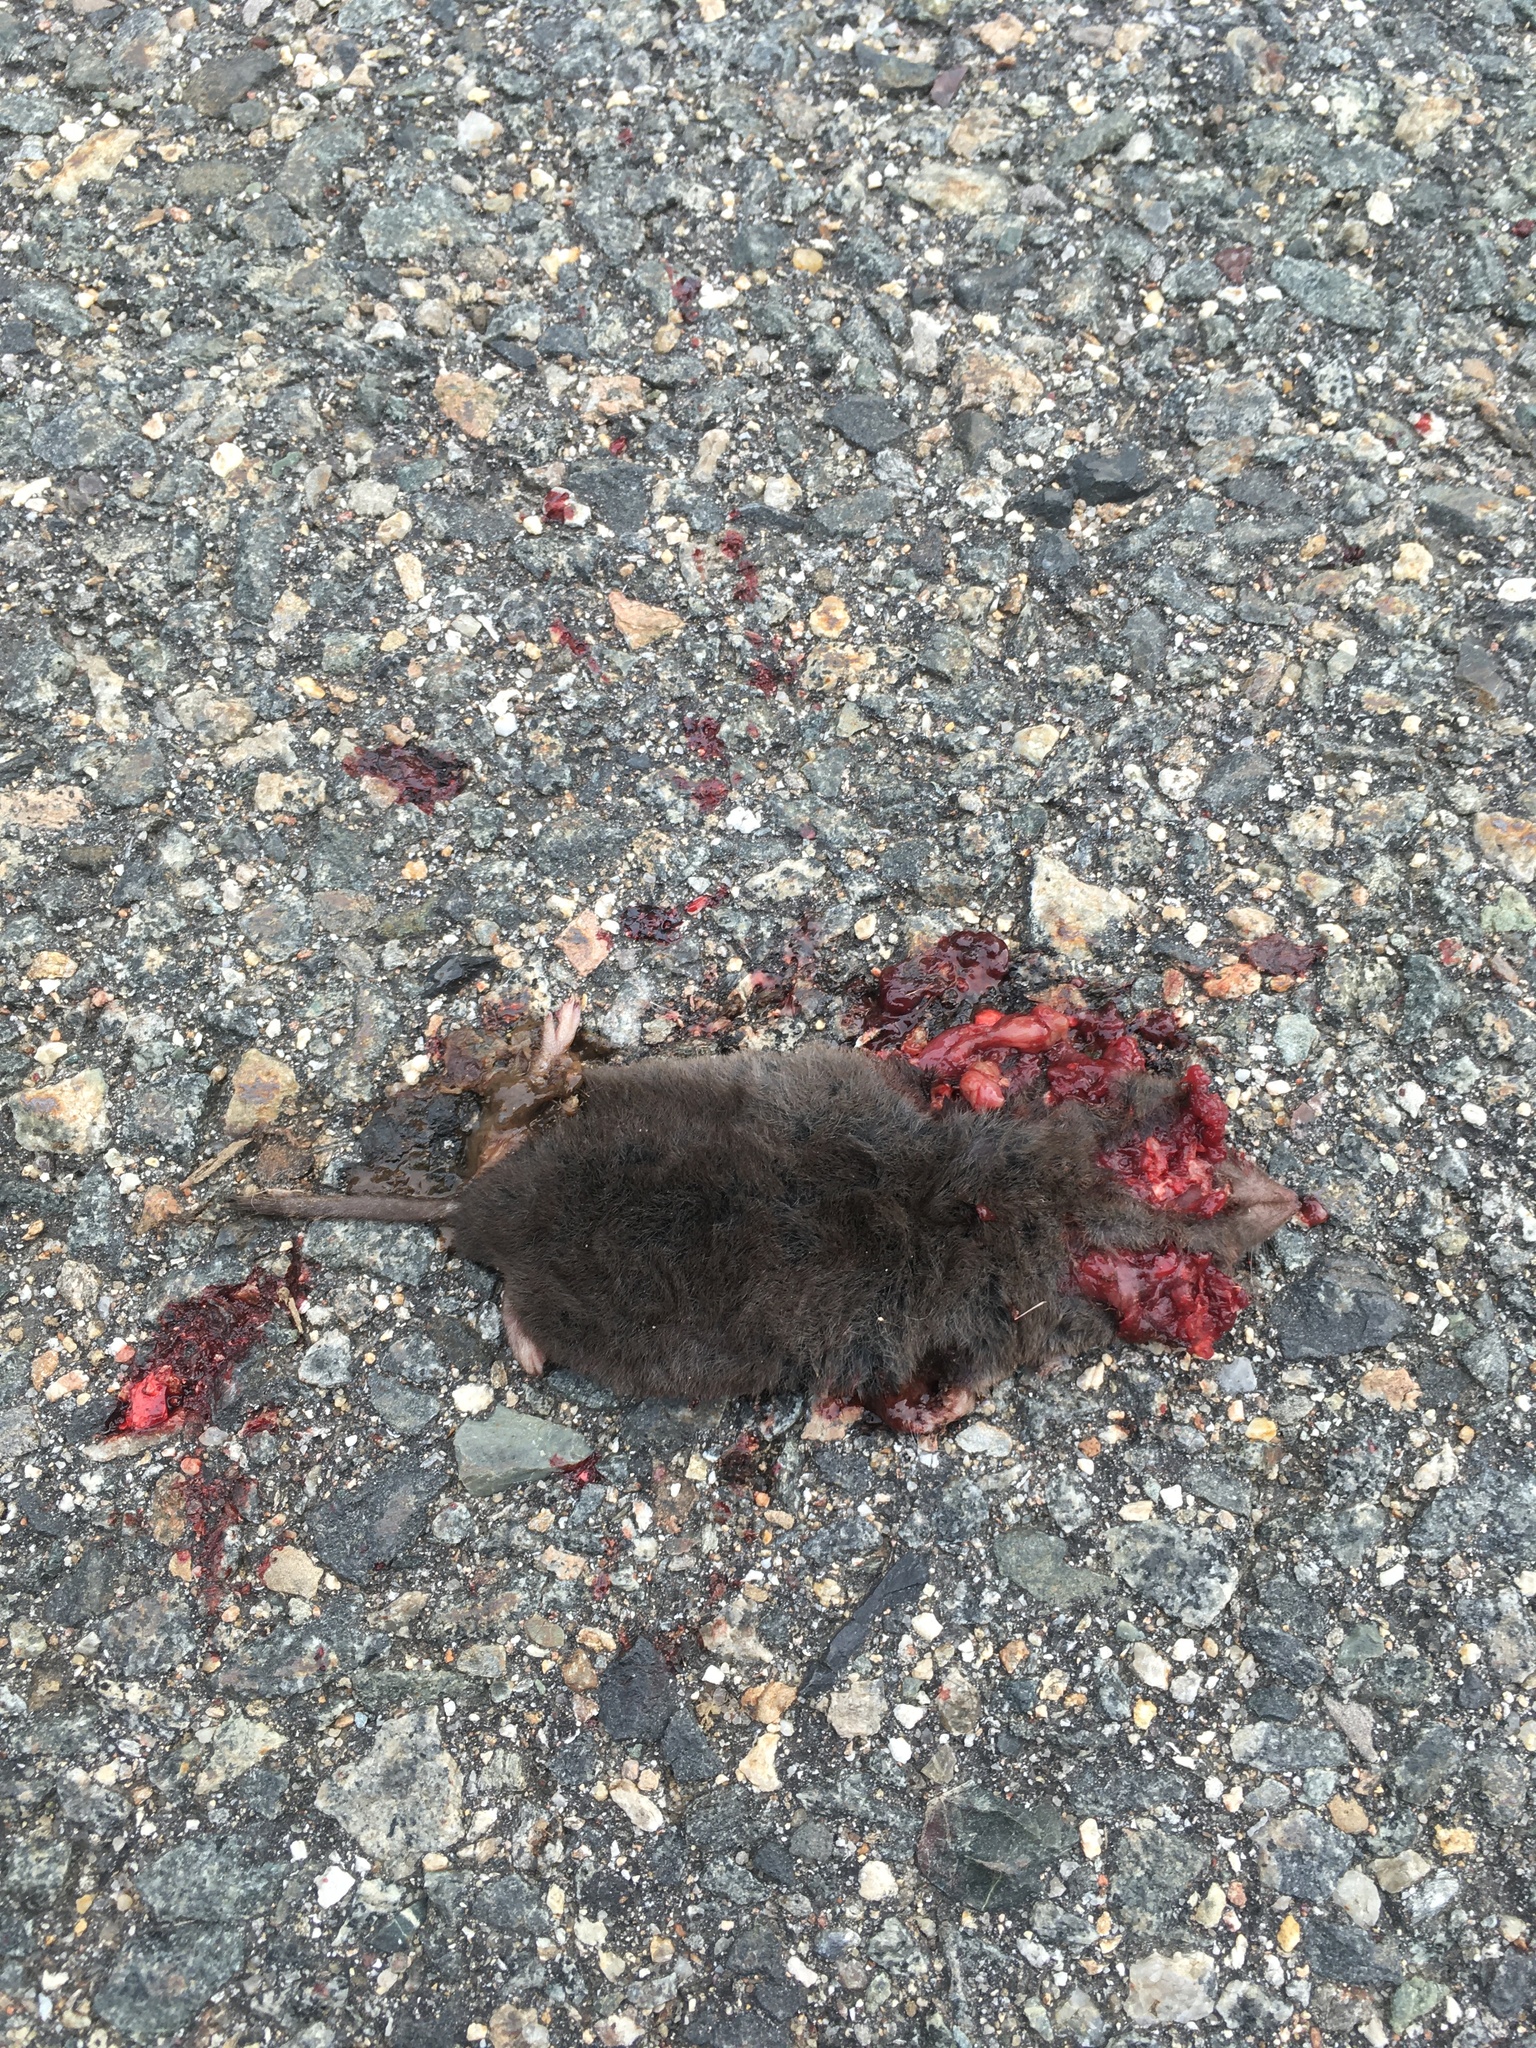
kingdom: Animalia
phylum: Chordata
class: Mammalia
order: Soricomorpha
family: Soricidae
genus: Blarina
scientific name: Blarina brevicauda
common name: Northern short-tailed shrew
